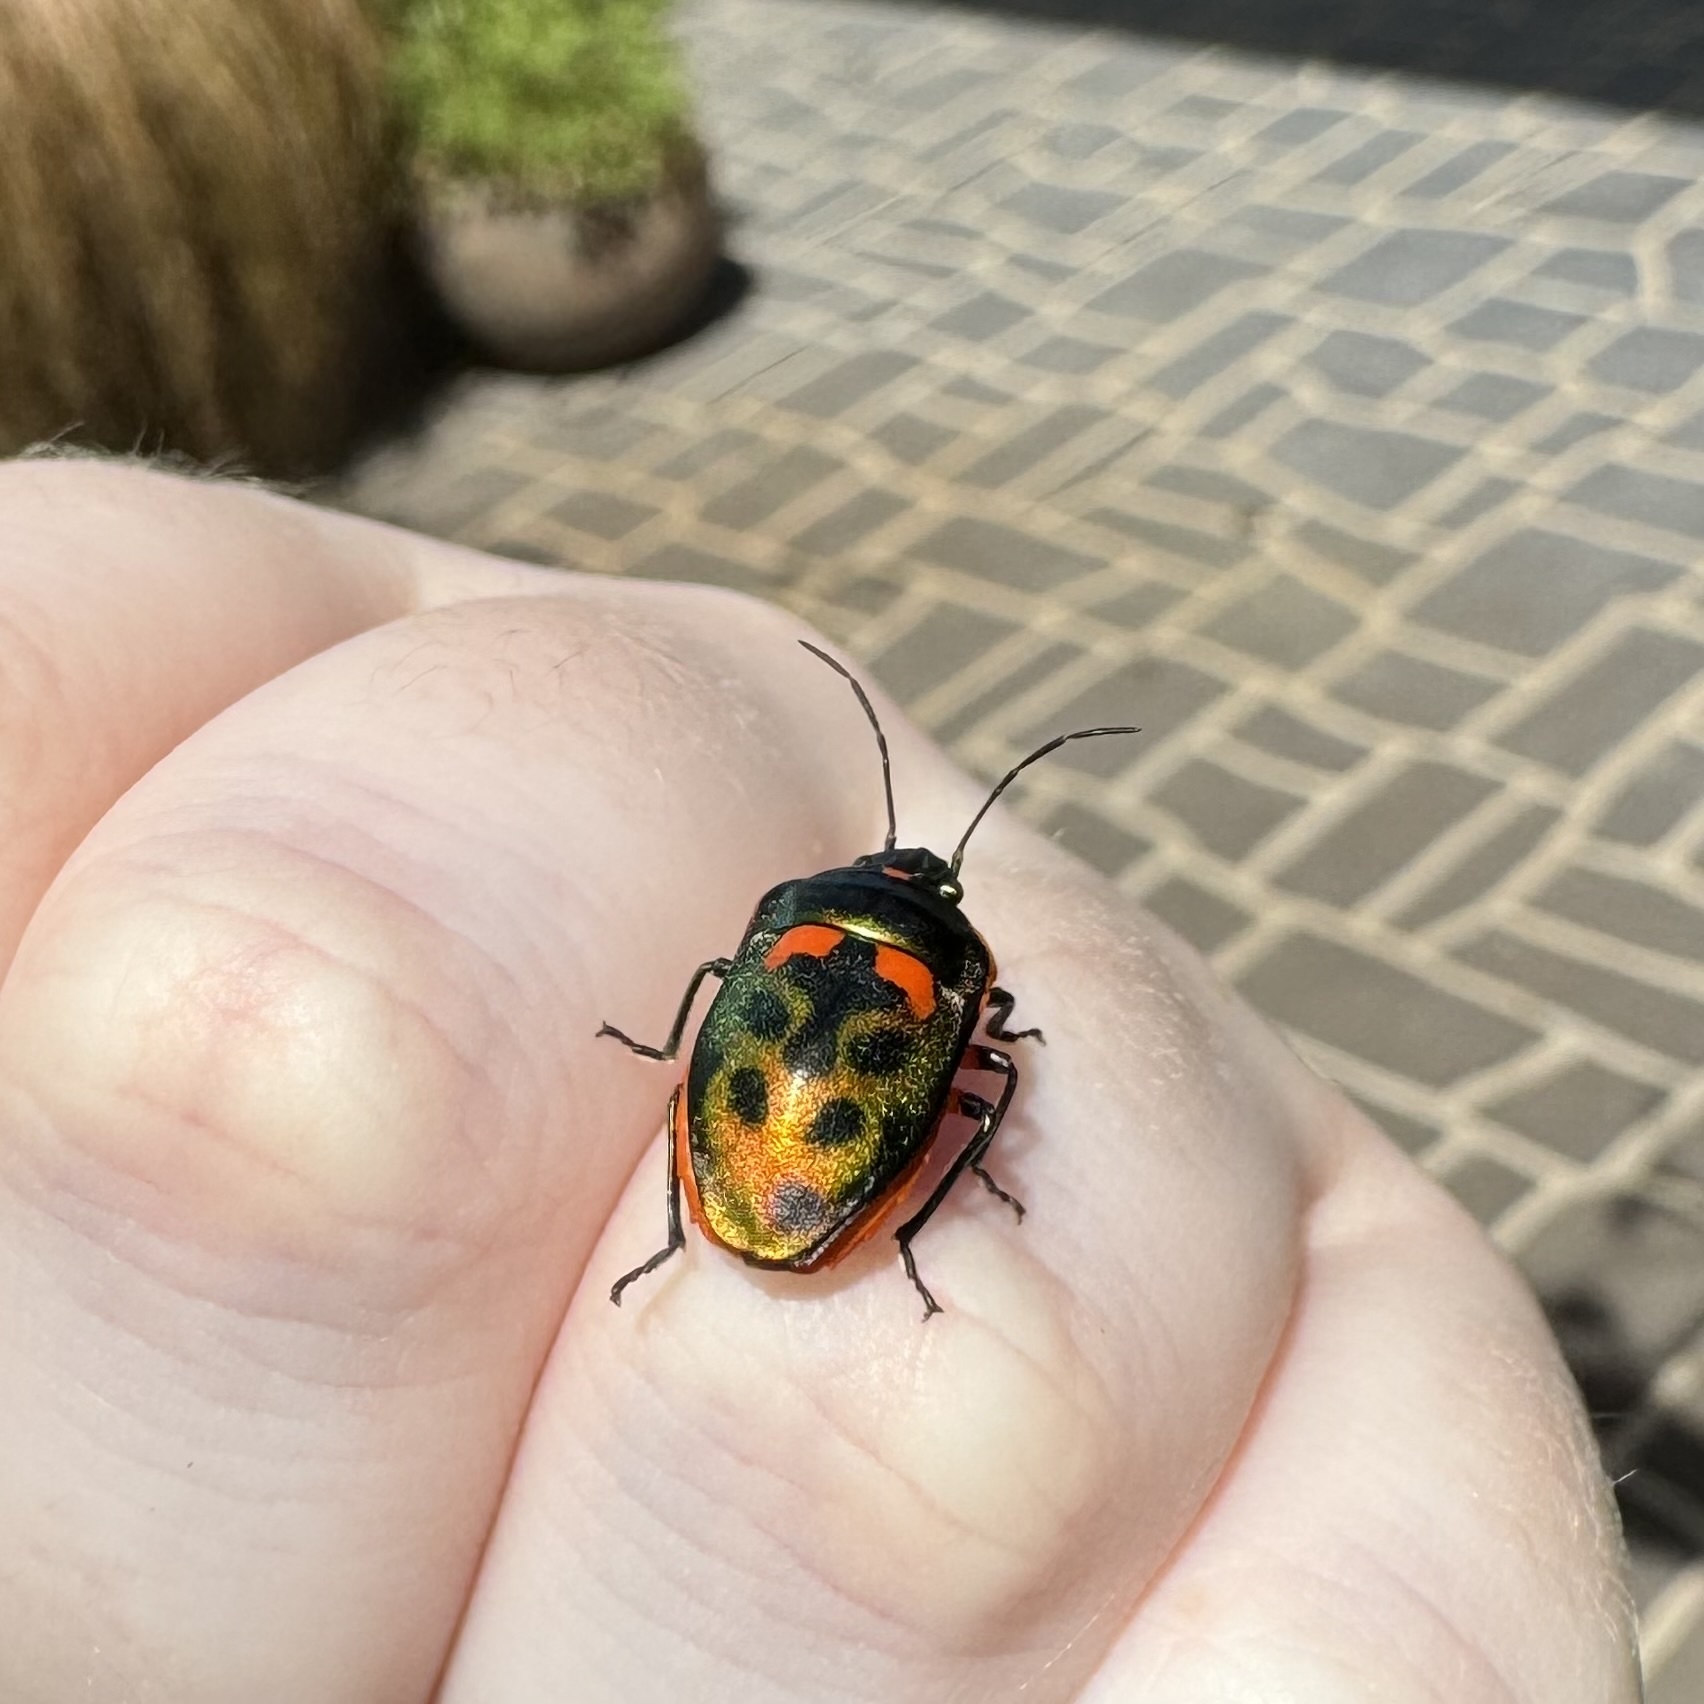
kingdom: Animalia
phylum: Arthropoda
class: Insecta
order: Hemiptera
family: Scutelleridae
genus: Scutiphora
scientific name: Scutiphora pedicellata
